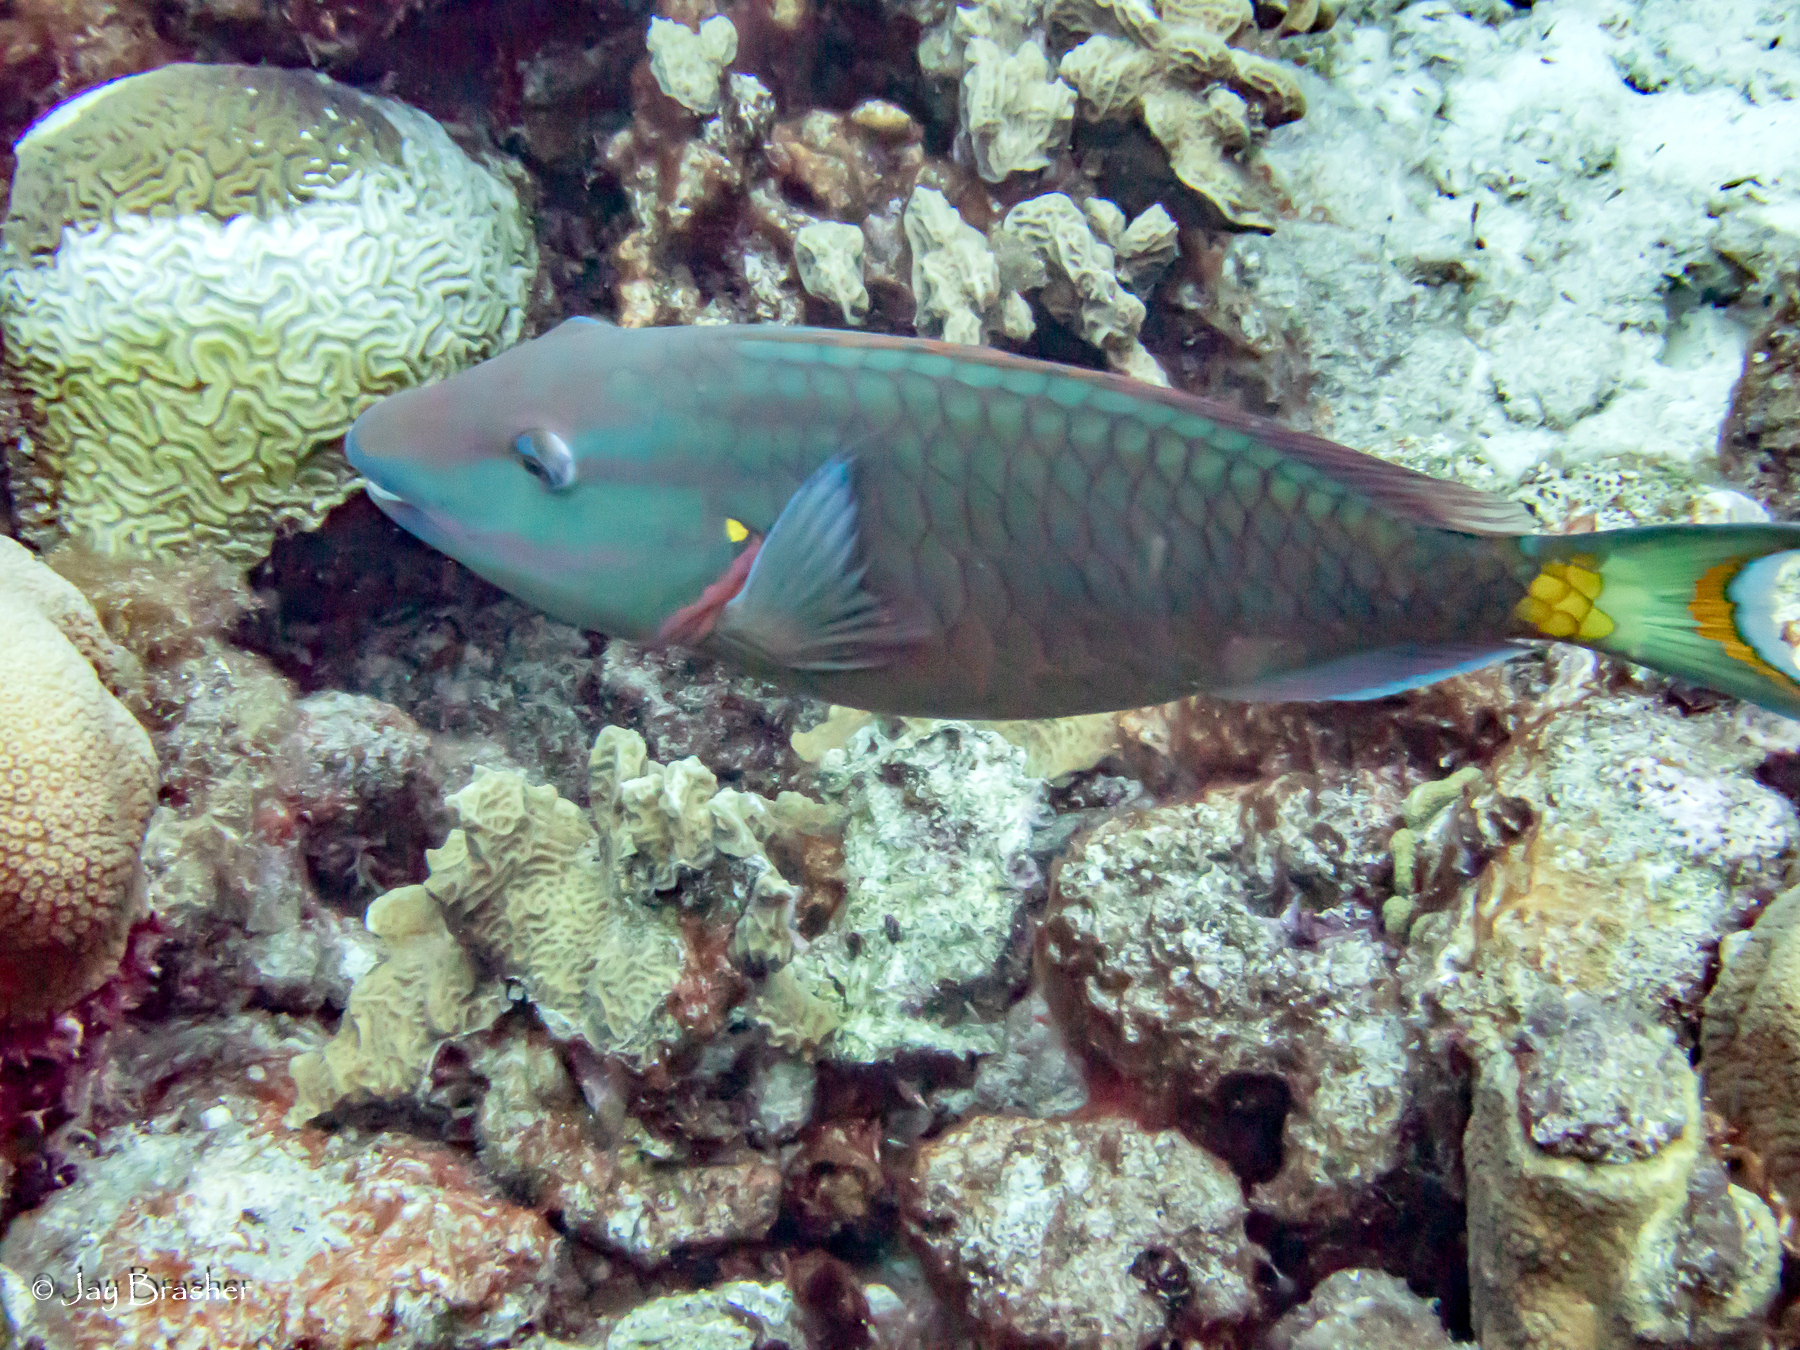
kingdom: Animalia
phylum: Chordata
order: Perciformes
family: Scaridae
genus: Sparisoma
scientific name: Sparisoma viride
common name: Stoplight parrotfish
